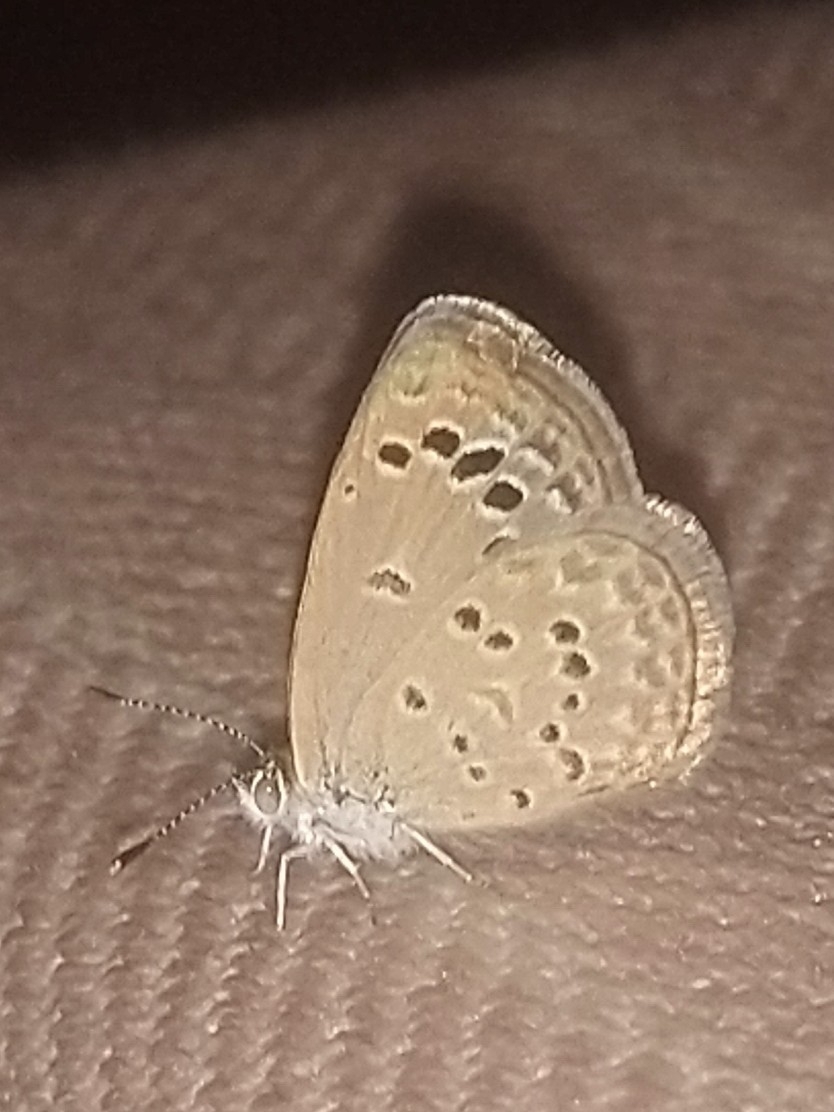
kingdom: Animalia
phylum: Arthropoda
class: Insecta
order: Lepidoptera
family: Lycaenidae
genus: Zizina
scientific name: Zizina otis
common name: Lesser grass blue
